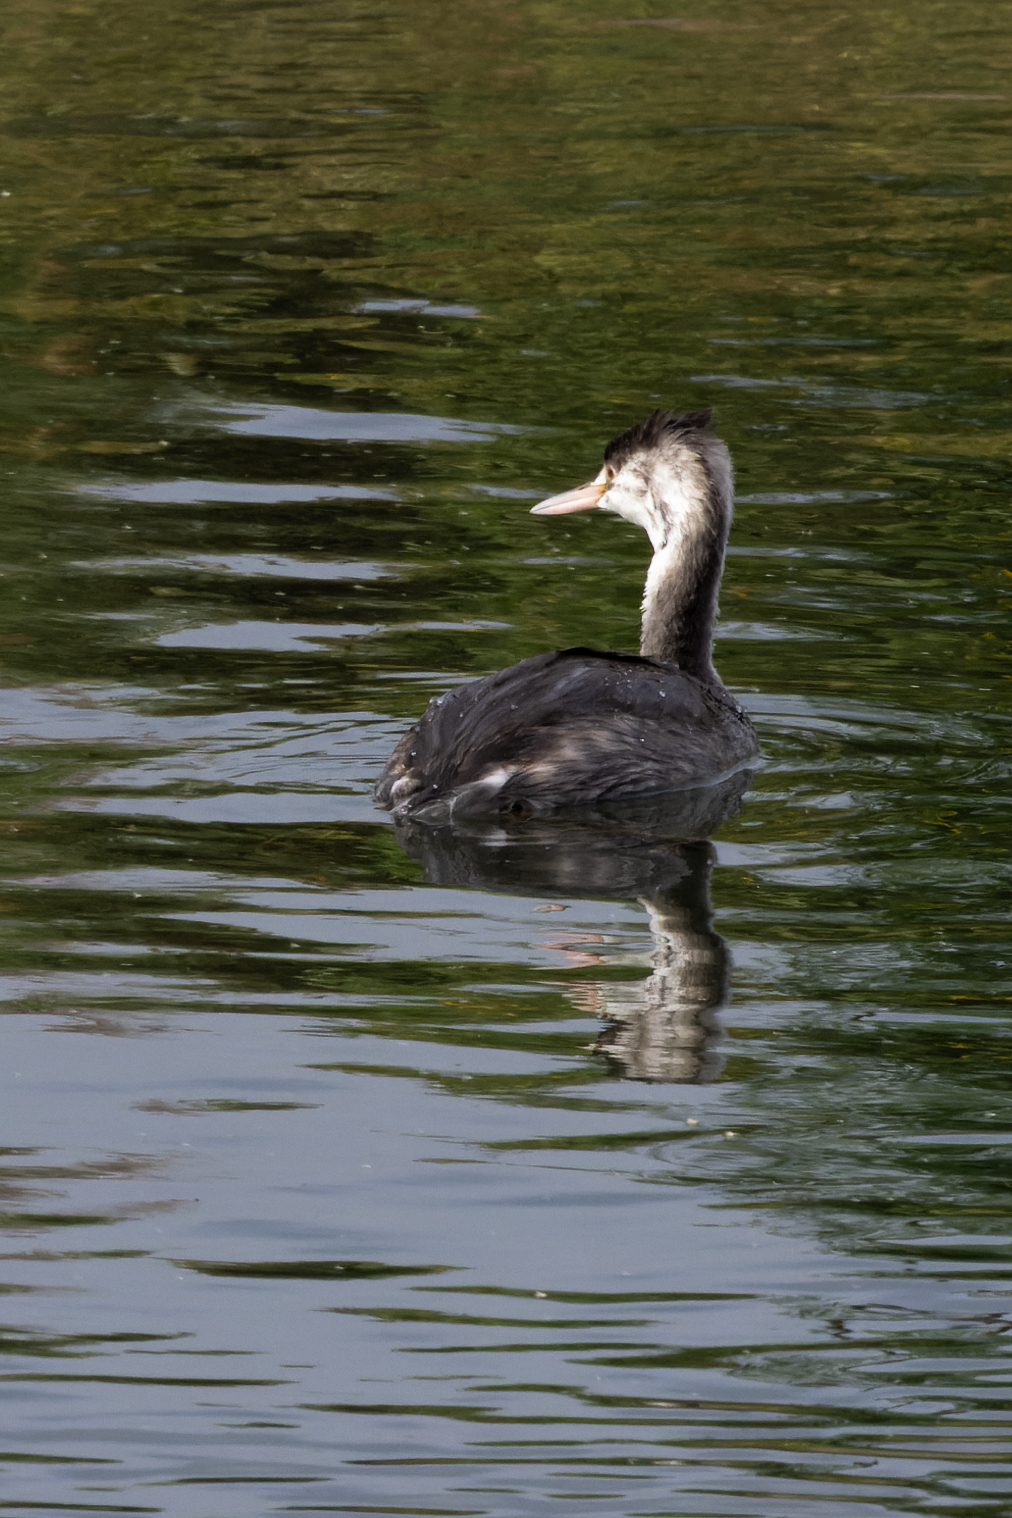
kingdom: Animalia
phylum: Chordata
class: Aves
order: Podicipediformes
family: Podicipedidae
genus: Podiceps
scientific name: Podiceps cristatus
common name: Great crested grebe
